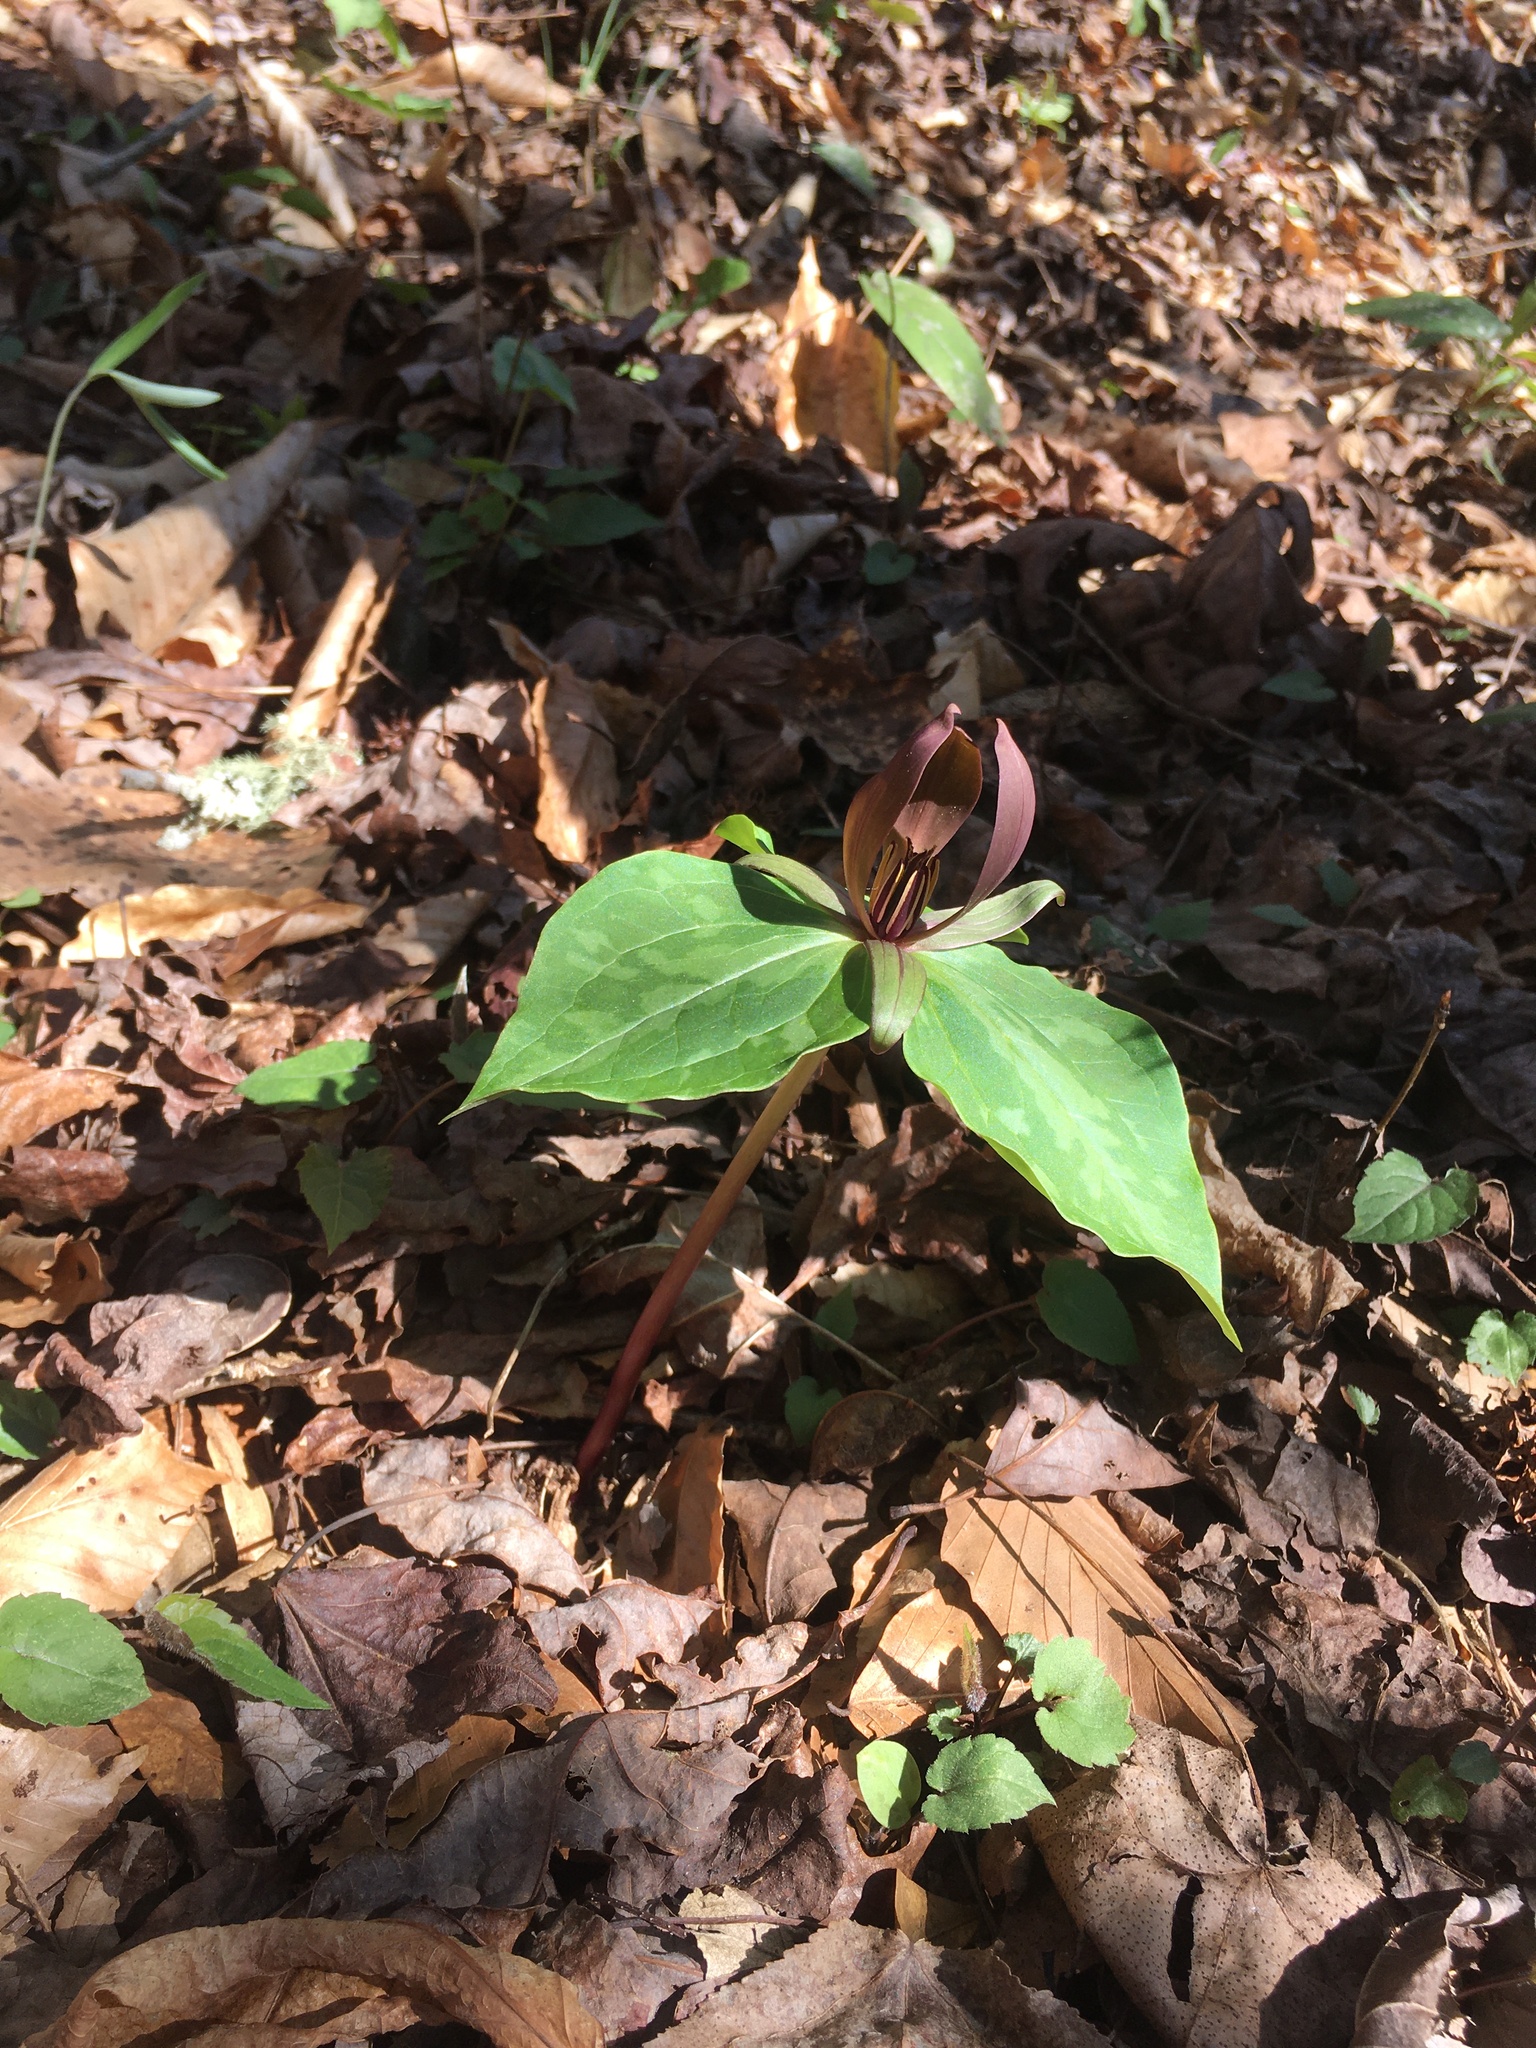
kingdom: Plantae
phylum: Tracheophyta
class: Liliopsida
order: Liliales
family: Melanthiaceae
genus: Trillium
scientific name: Trillium cuneatum
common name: Cuneate trillium
